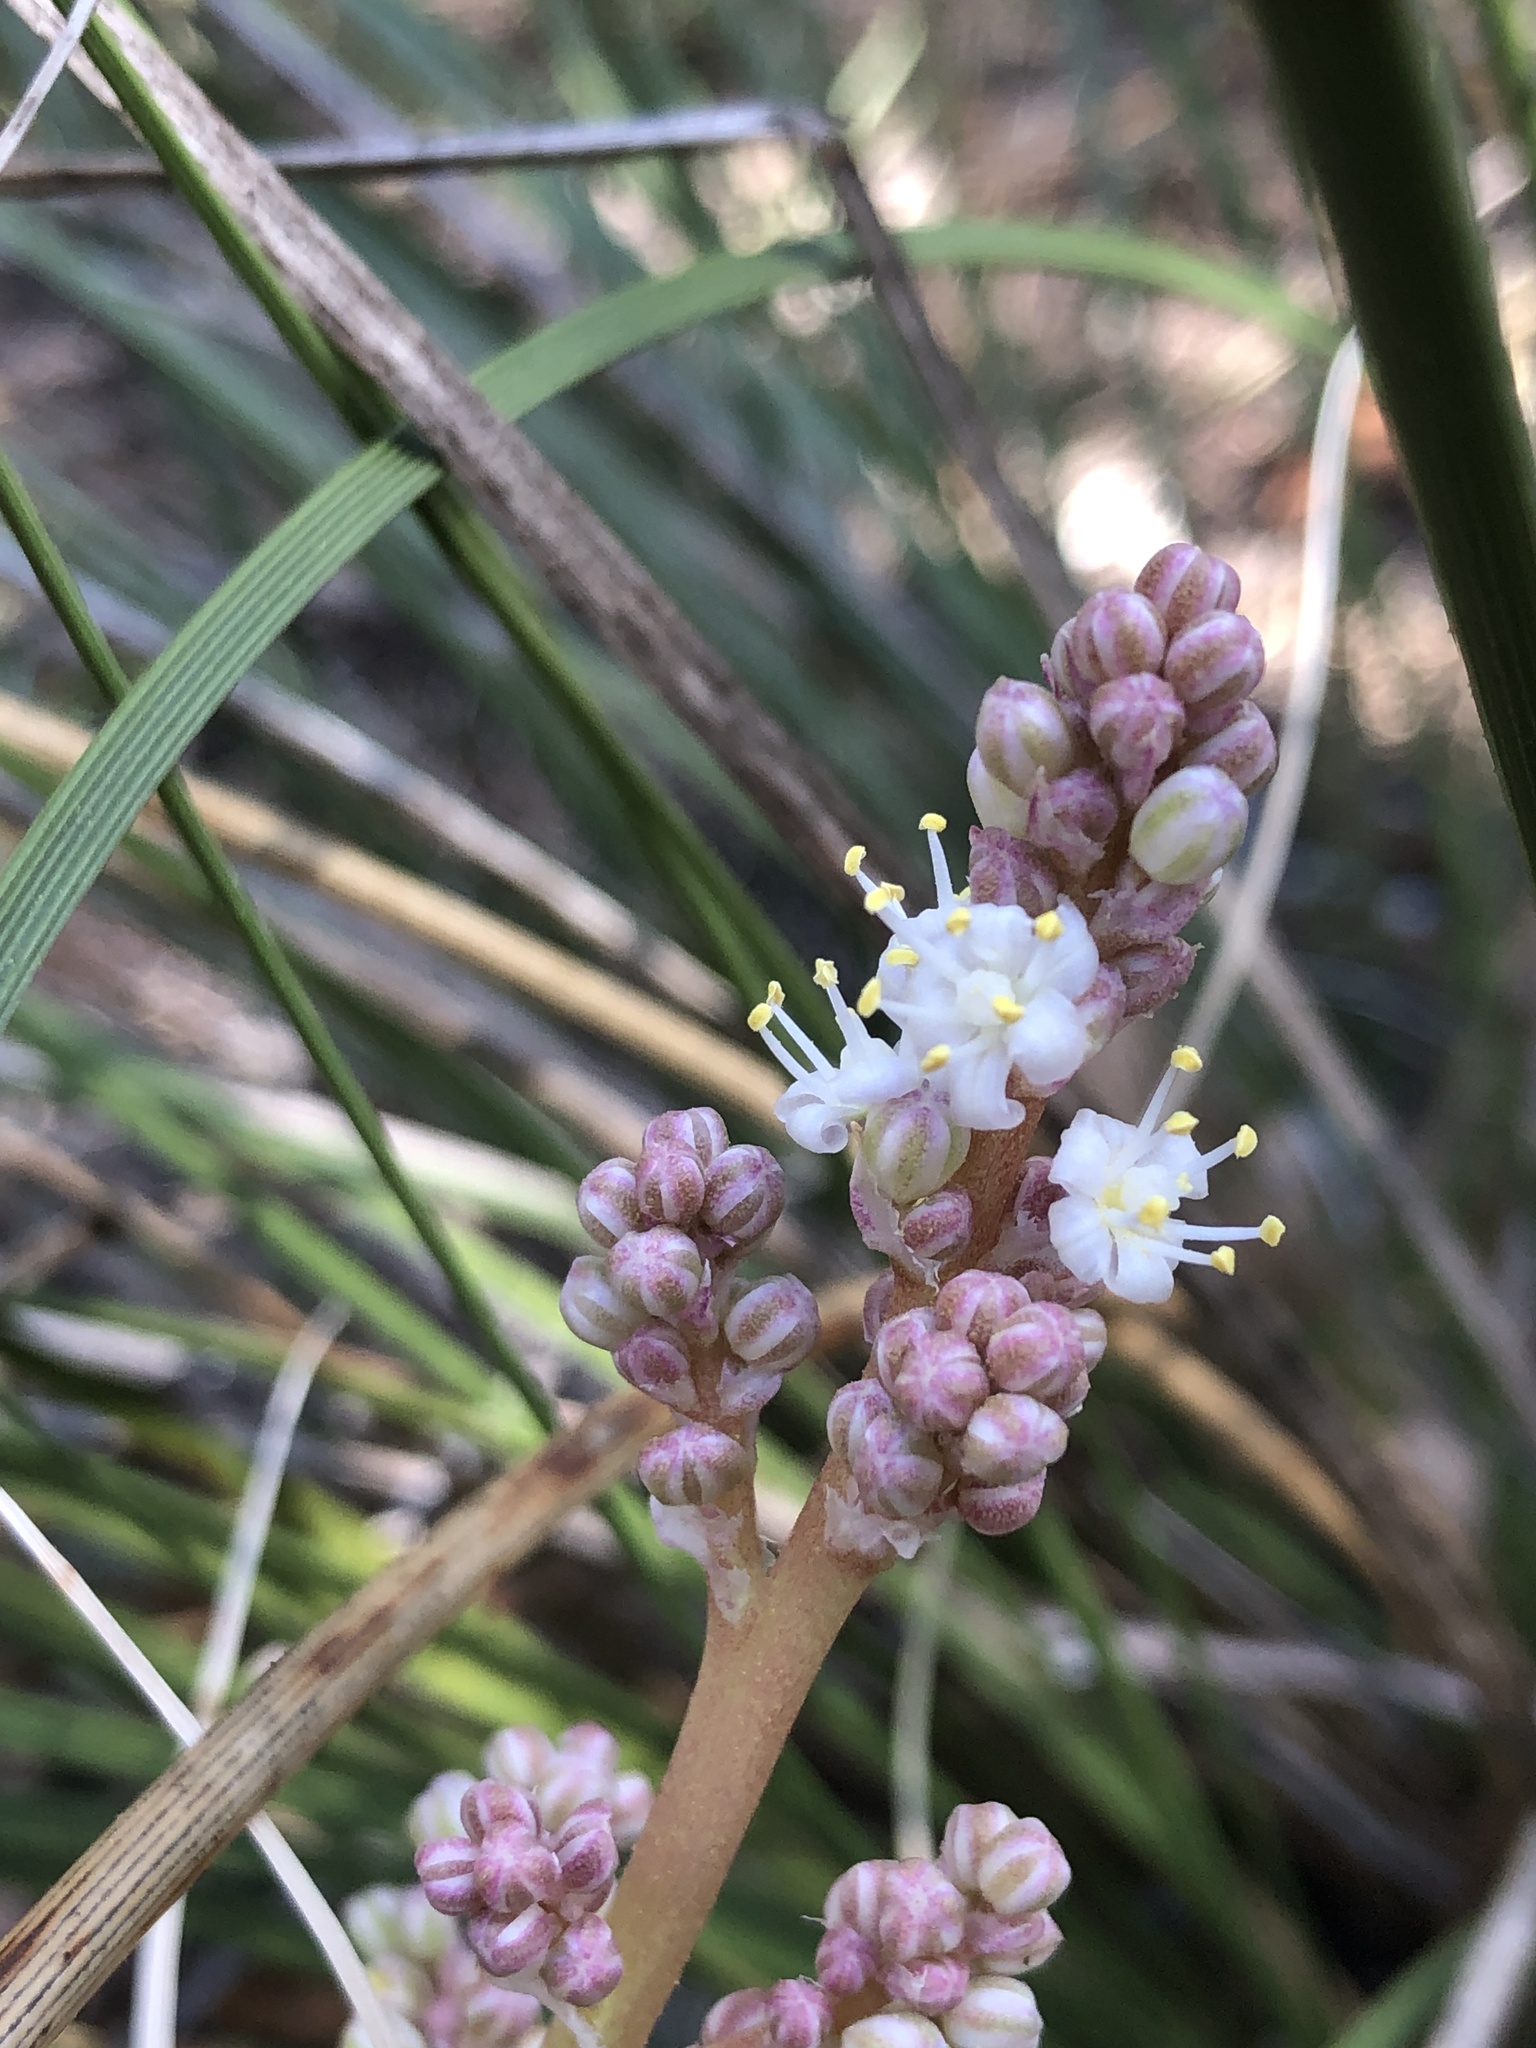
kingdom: Plantae
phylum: Tracheophyta
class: Liliopsida
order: Asparagales
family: Asparagaceae
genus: Nolina
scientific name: Nolina texana
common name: Texas sacahuiste
